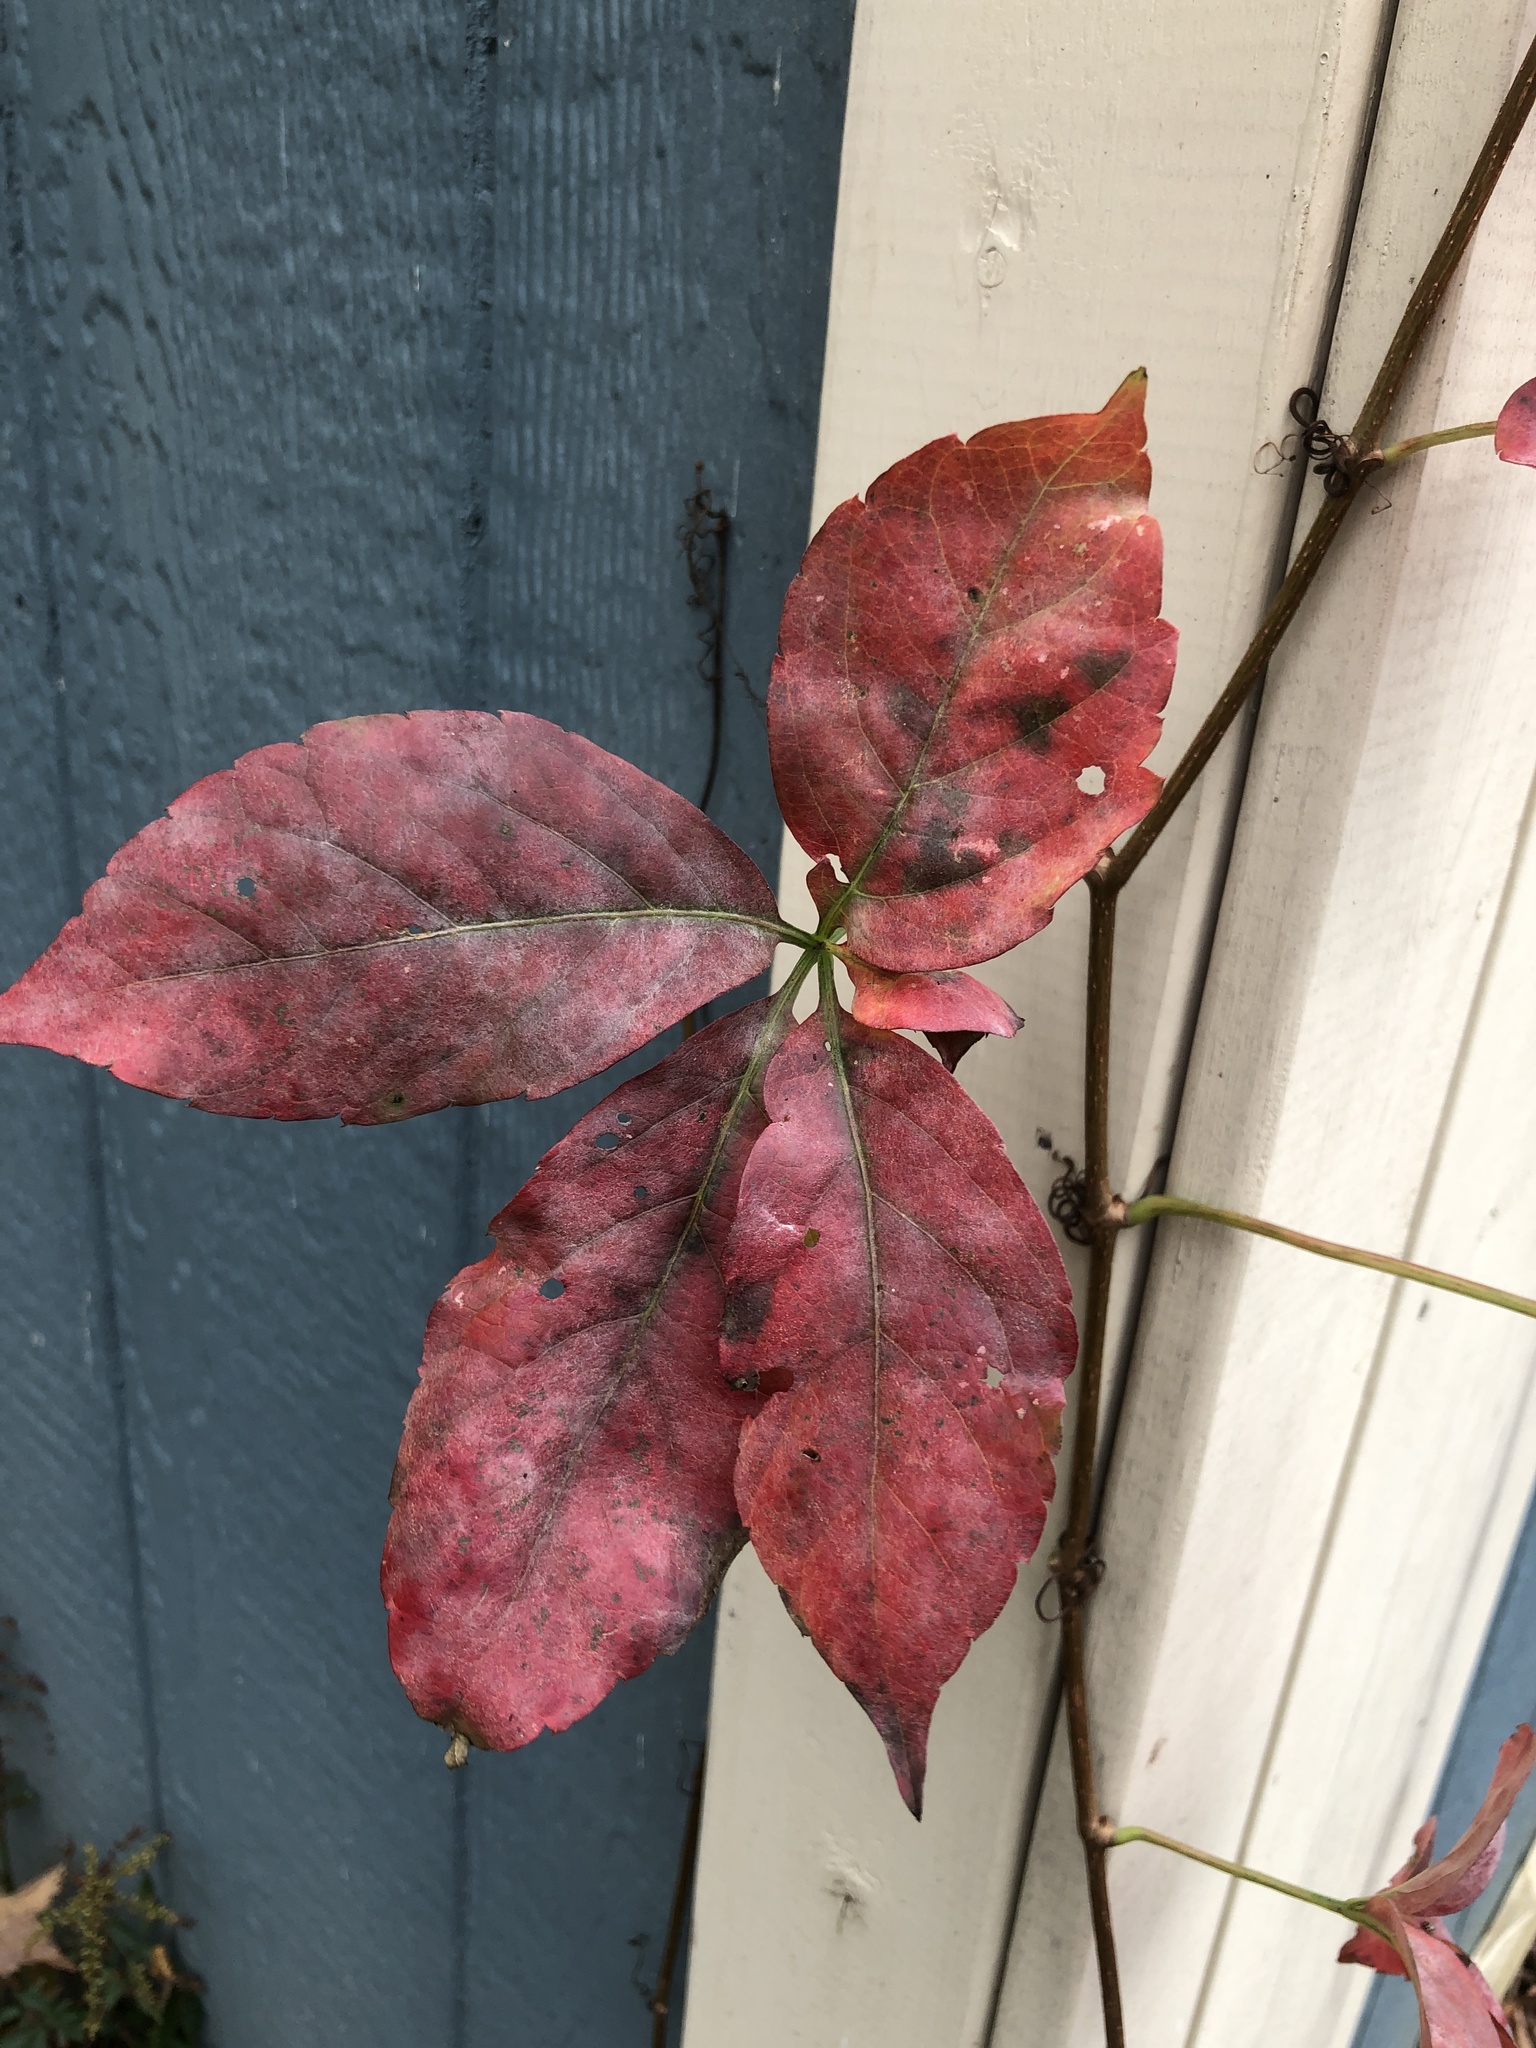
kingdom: Plantae
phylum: Tracheophyta
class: Magnoliopsida
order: Vitales
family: Vitaceae
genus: Parthenocissus
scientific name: Parthenocissus quinquefolia
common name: Virginia-creeper
